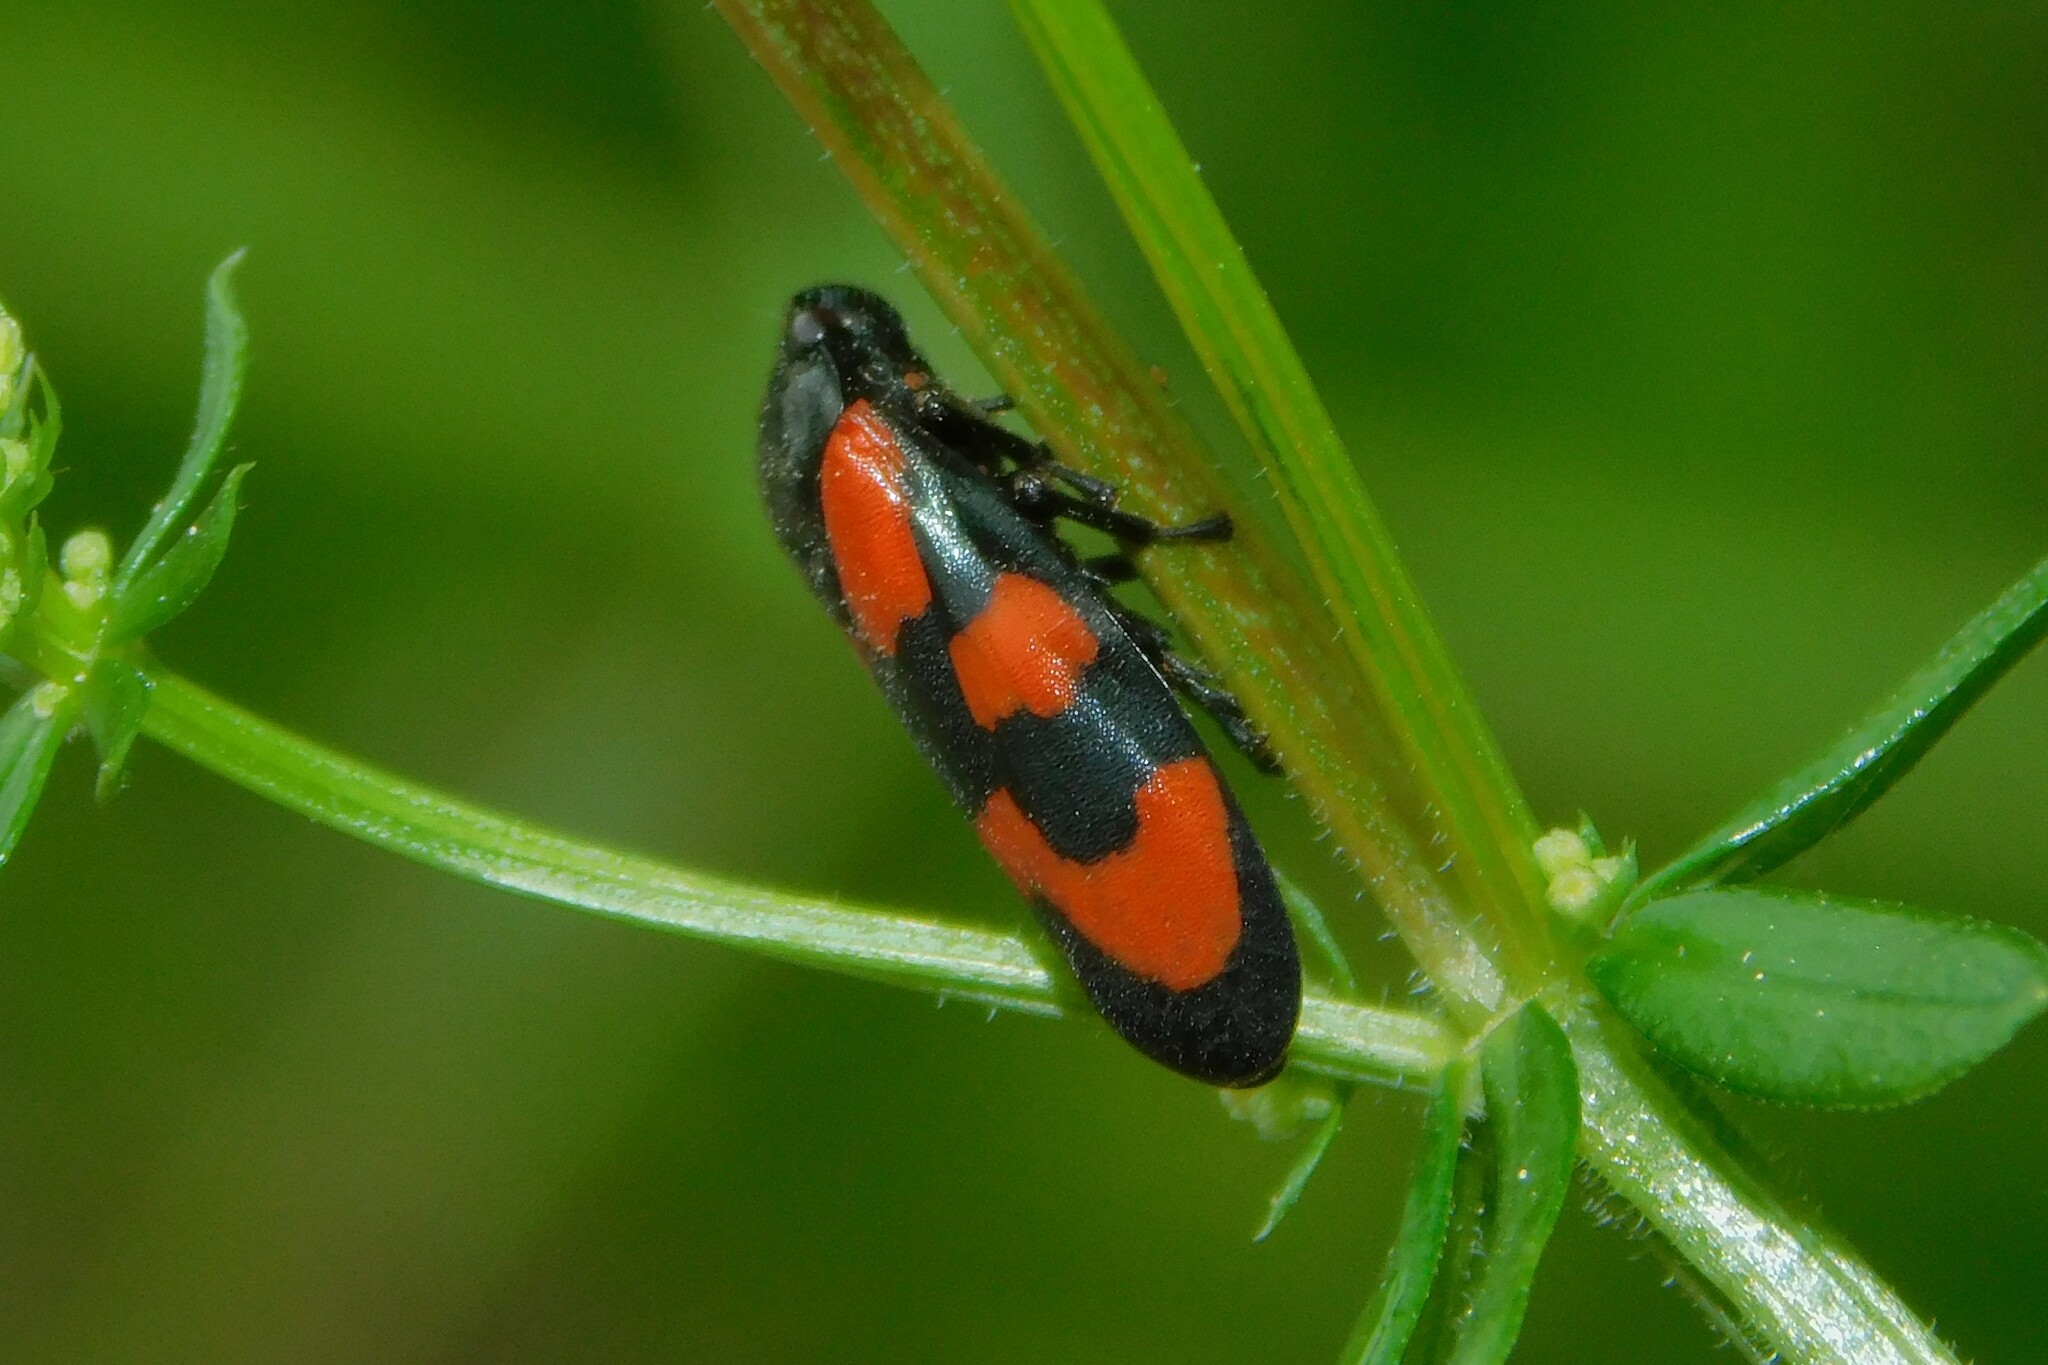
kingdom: Animalia
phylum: Arthropoda
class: Insecta
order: Hemiptera
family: Cercopidae
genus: Cercopis
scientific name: Cercopis vulnerata
